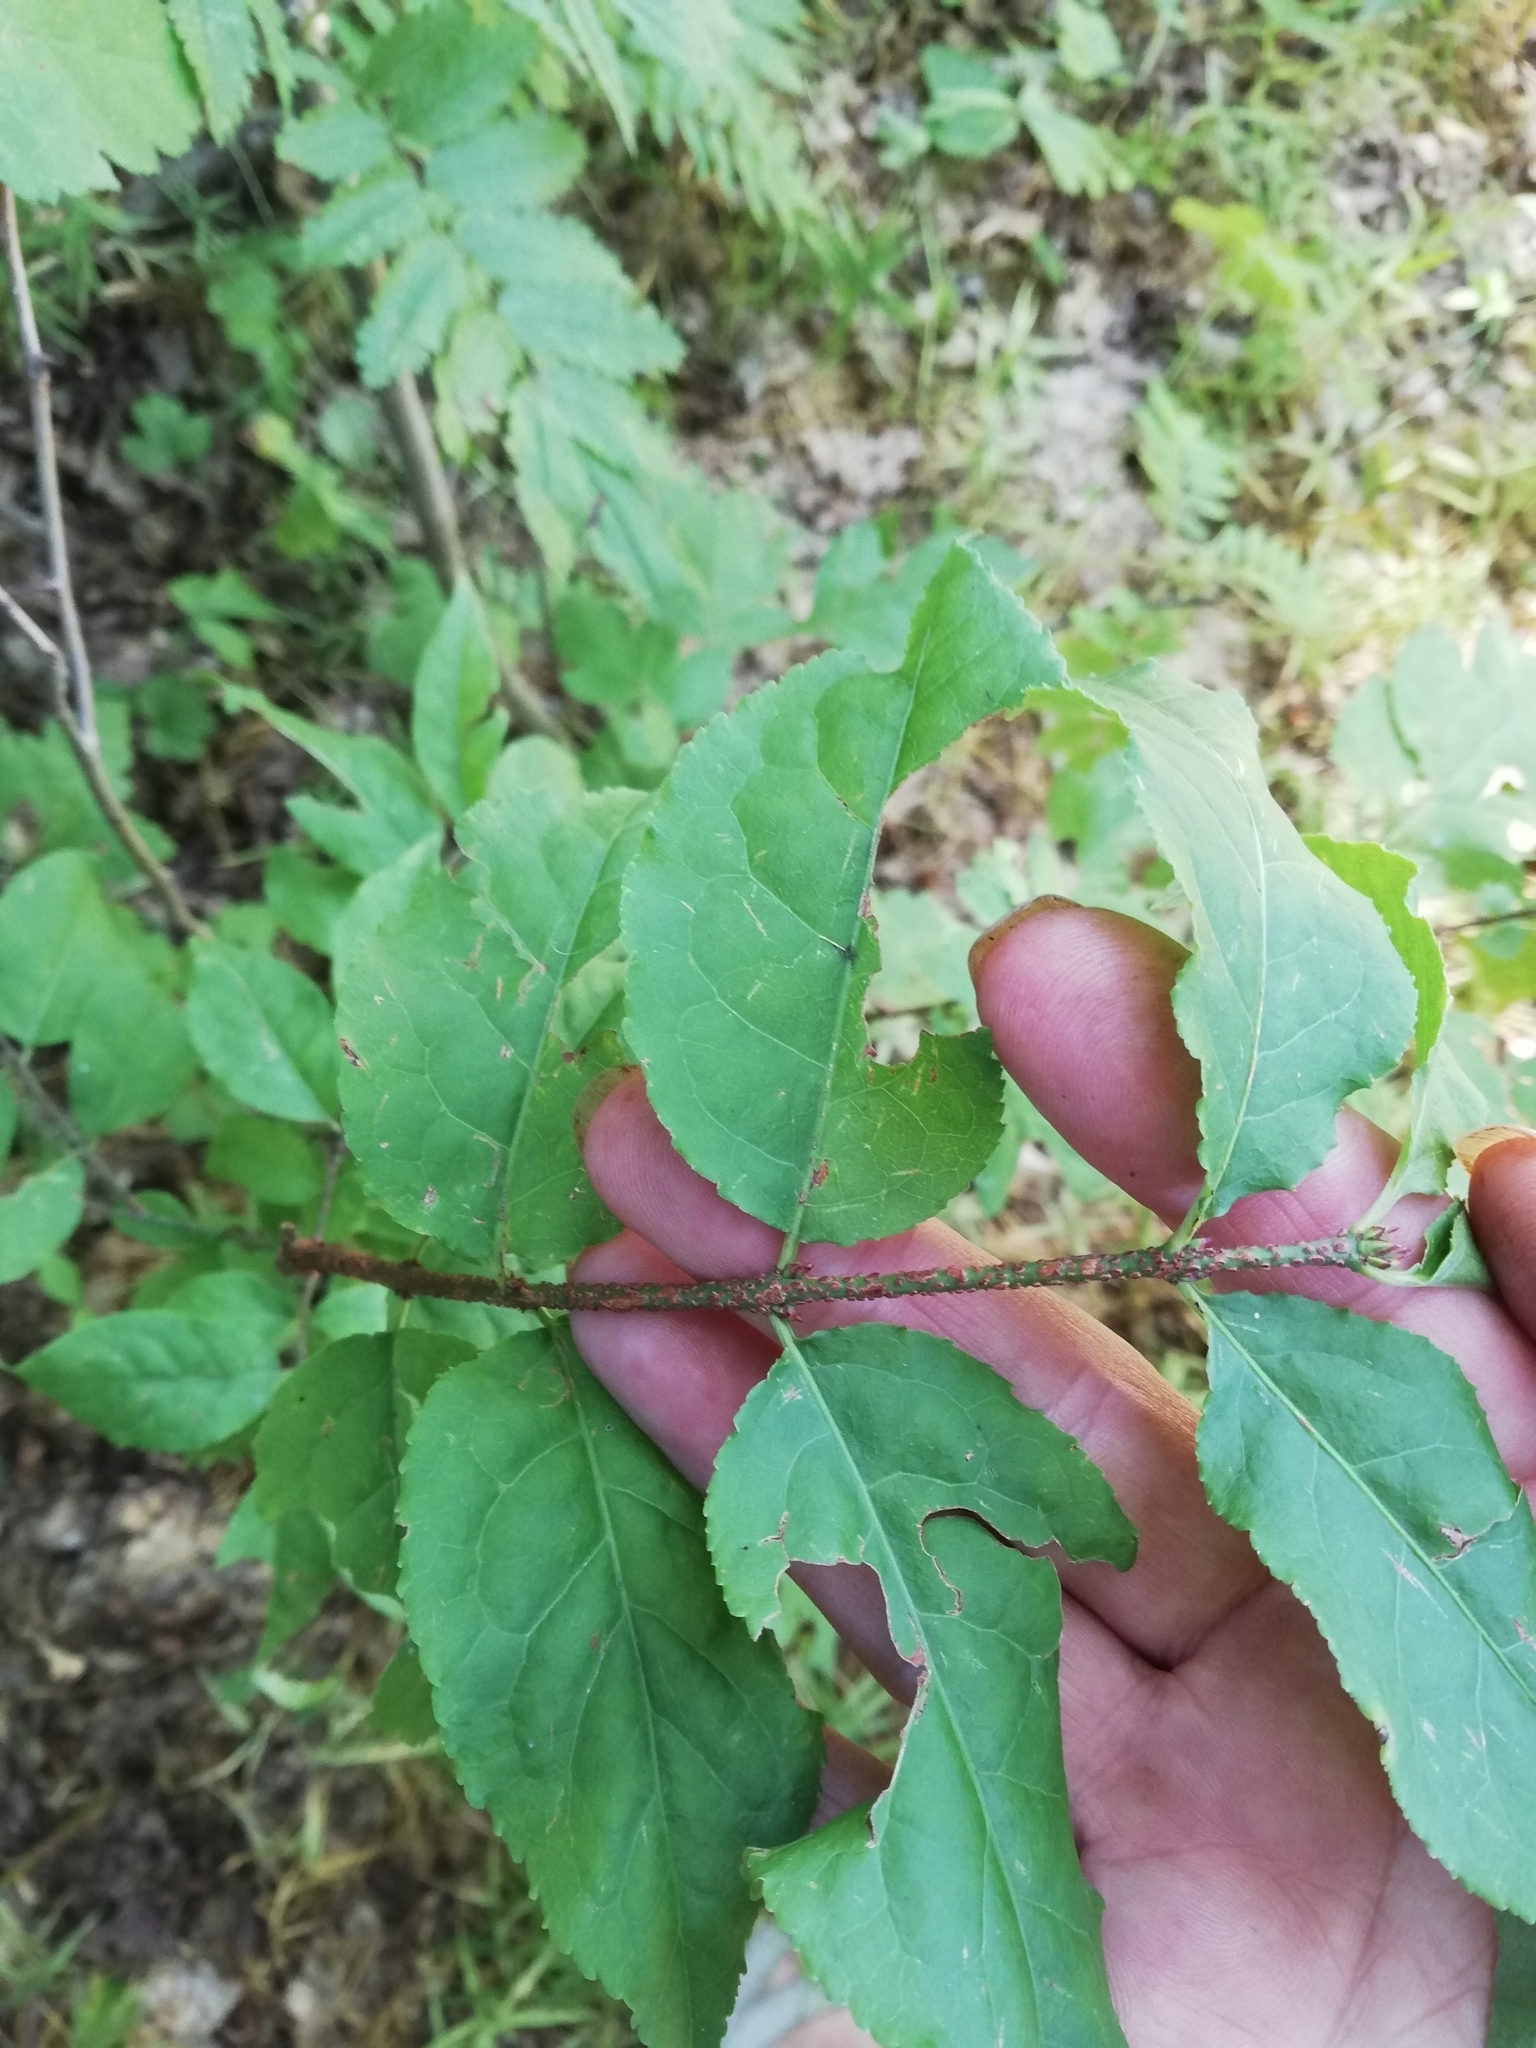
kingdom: Plantae
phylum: Tracheophyta
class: Magnoliopsida
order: Celastrales
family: Celastraceae
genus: Euonymus
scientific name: Euonymus verrucosus
